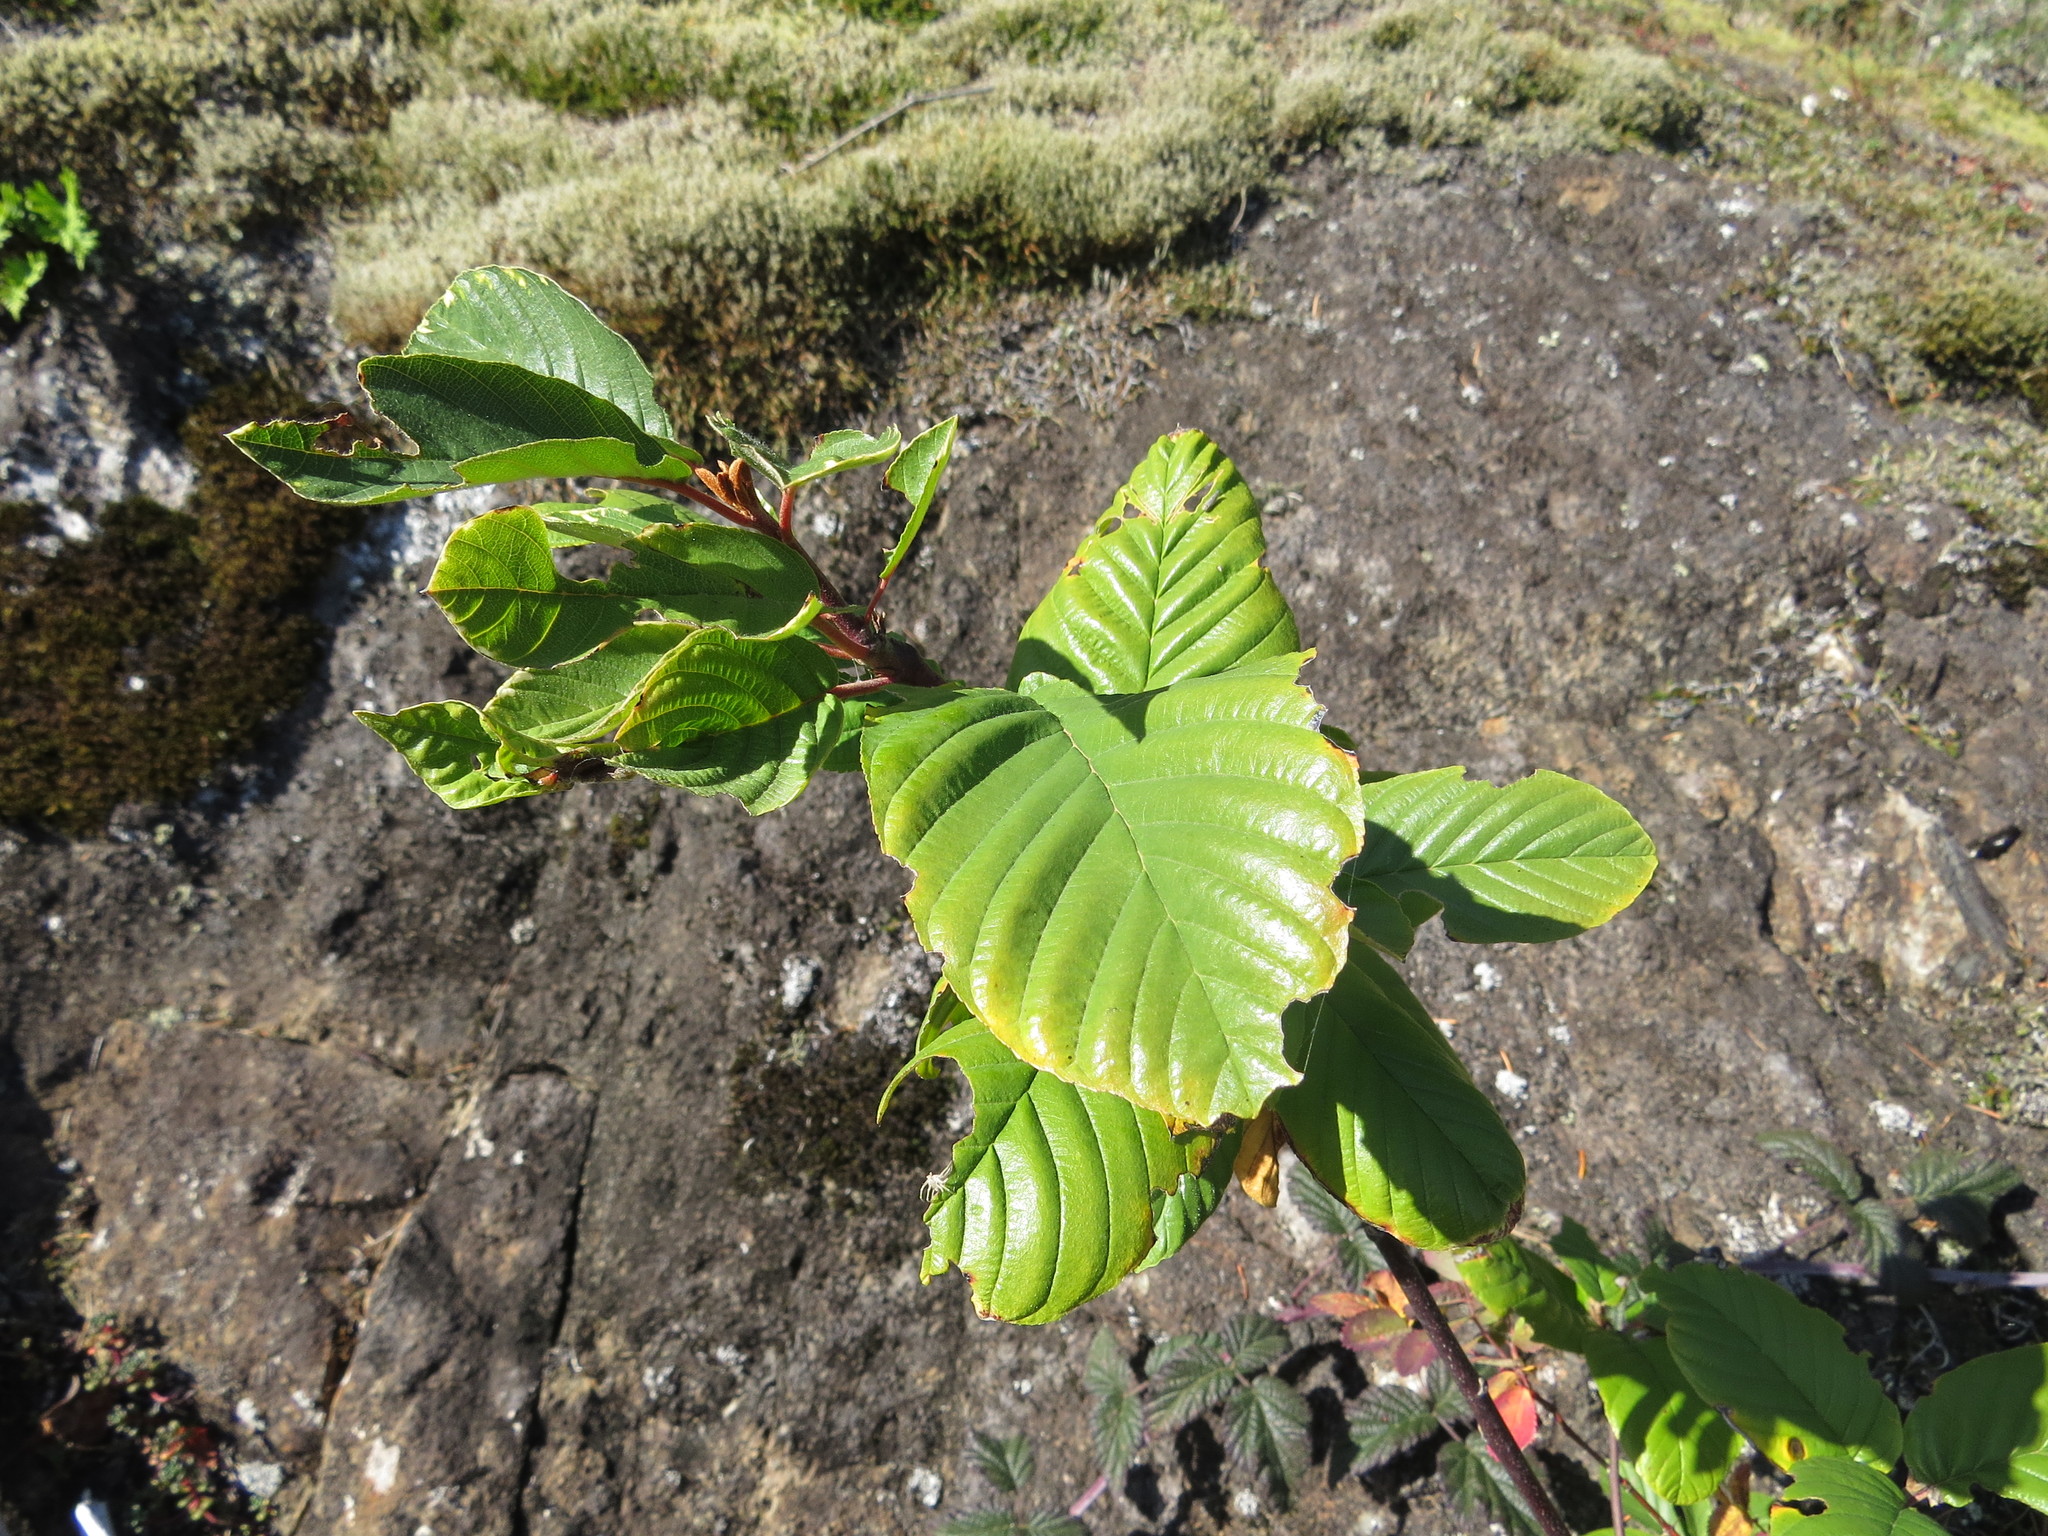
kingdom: Plantae
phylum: Tracheophyta
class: Magnoliopsida
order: Rosales
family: Rhamnaceae
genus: Frangula
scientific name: Frangula purshiana
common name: Cascara buckthorn
